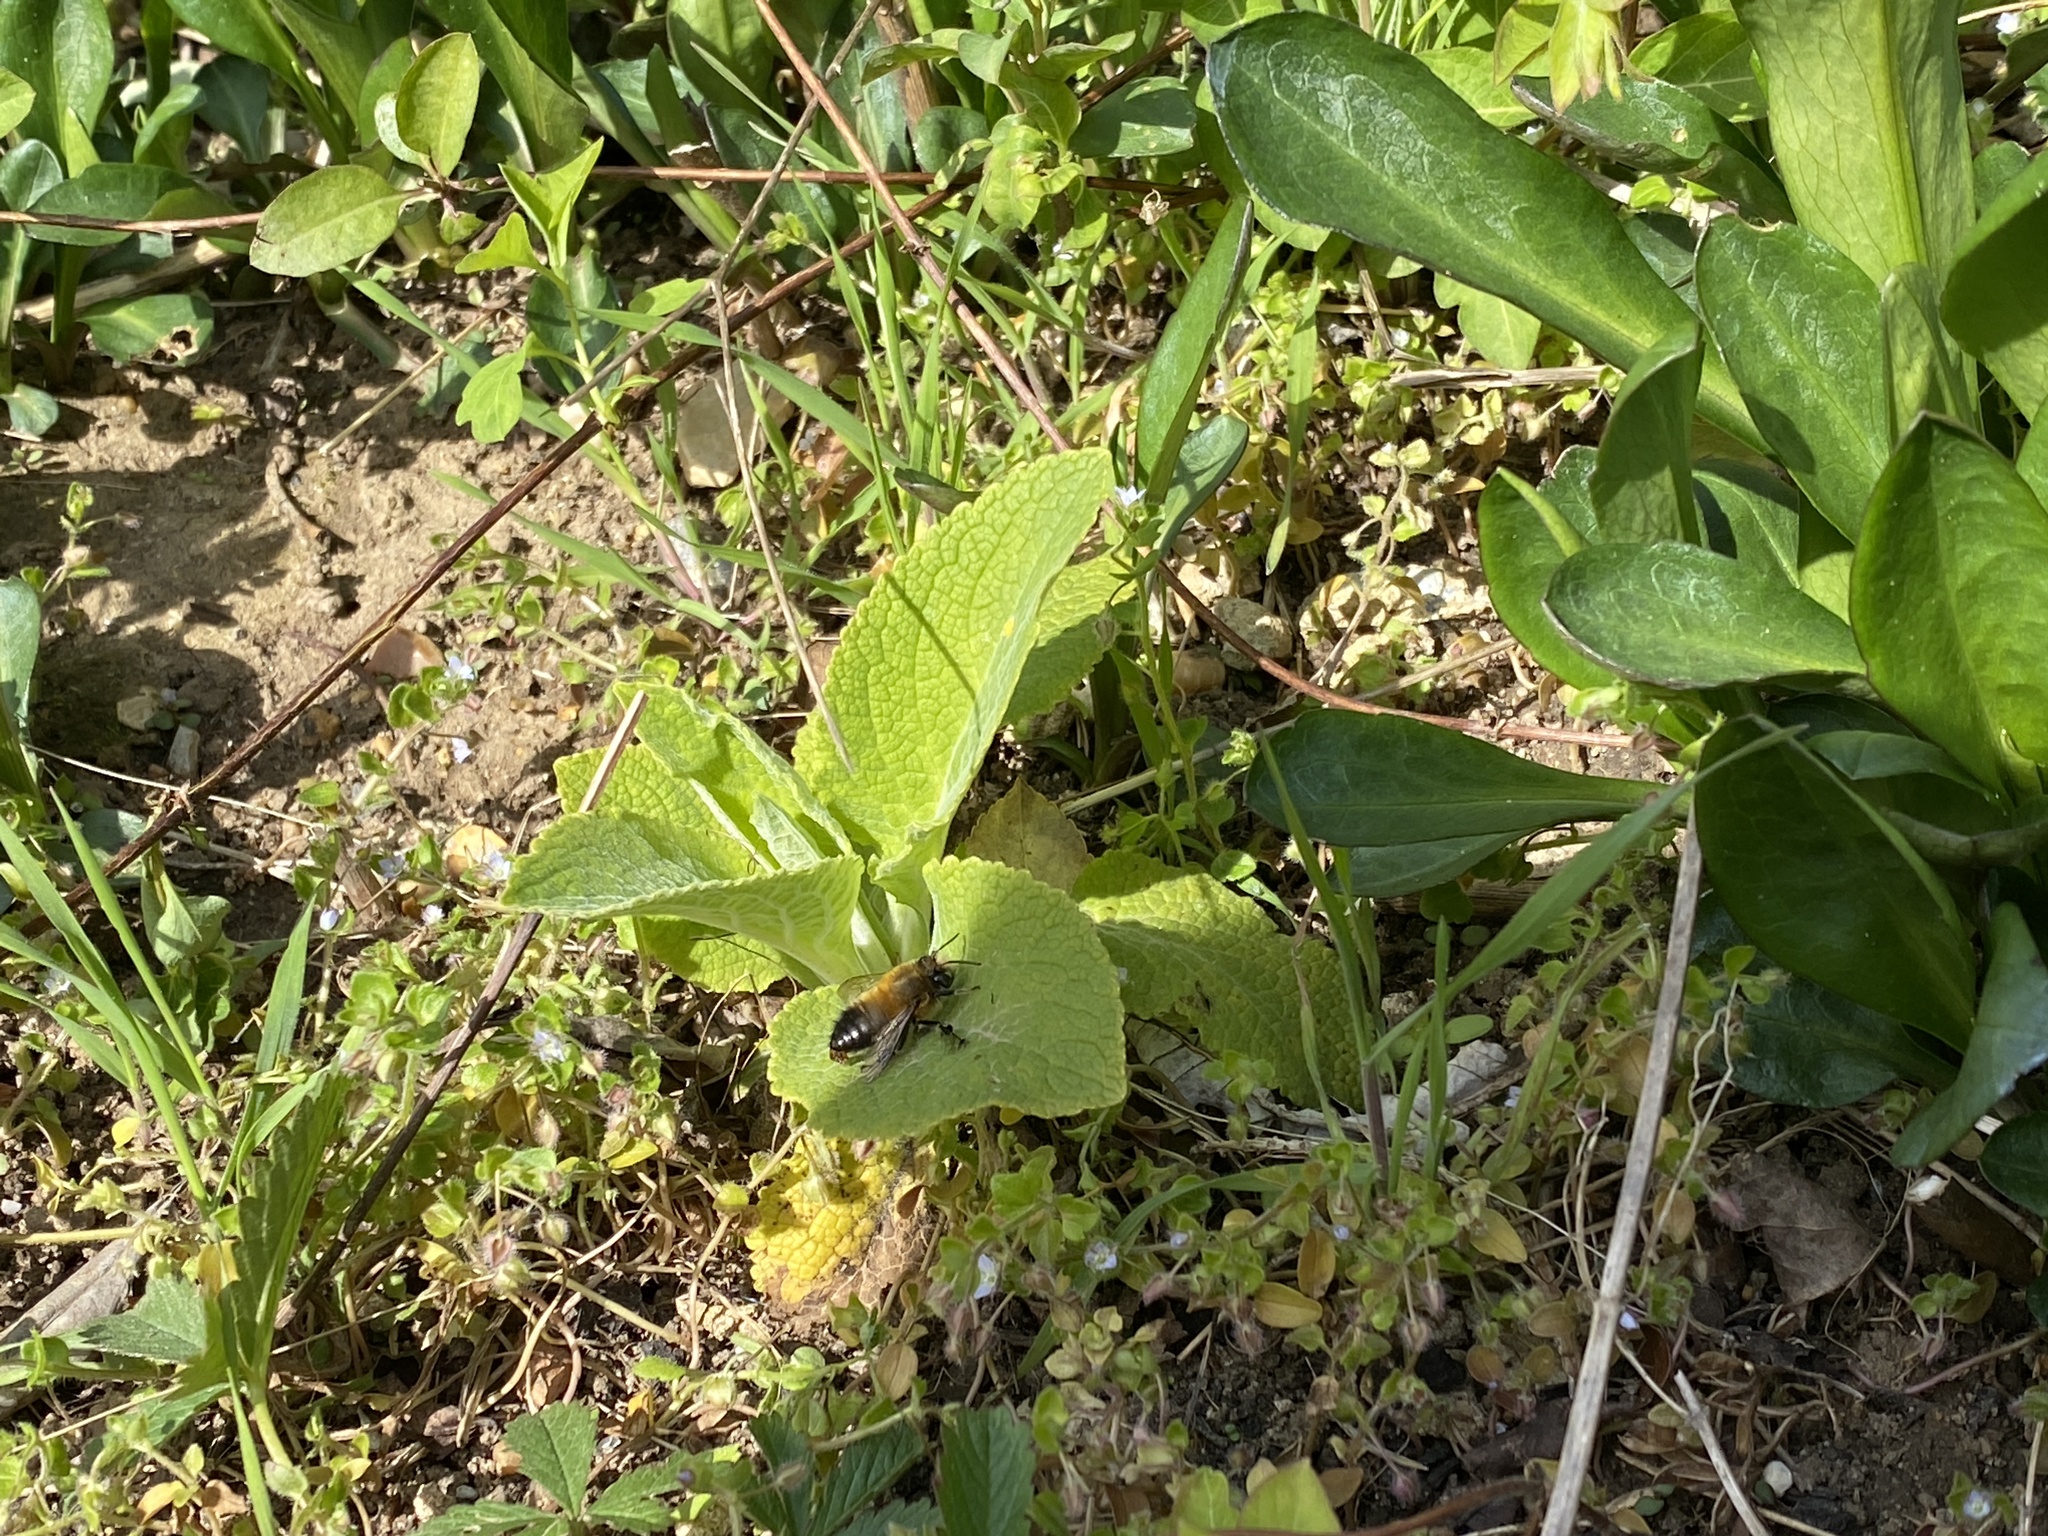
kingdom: Animalia
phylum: Arthropoda
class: Insecta
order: Hymenoptera
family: Apidae
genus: Anthophora
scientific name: Anthophora plumipes
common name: Hairy-footed flower bee
